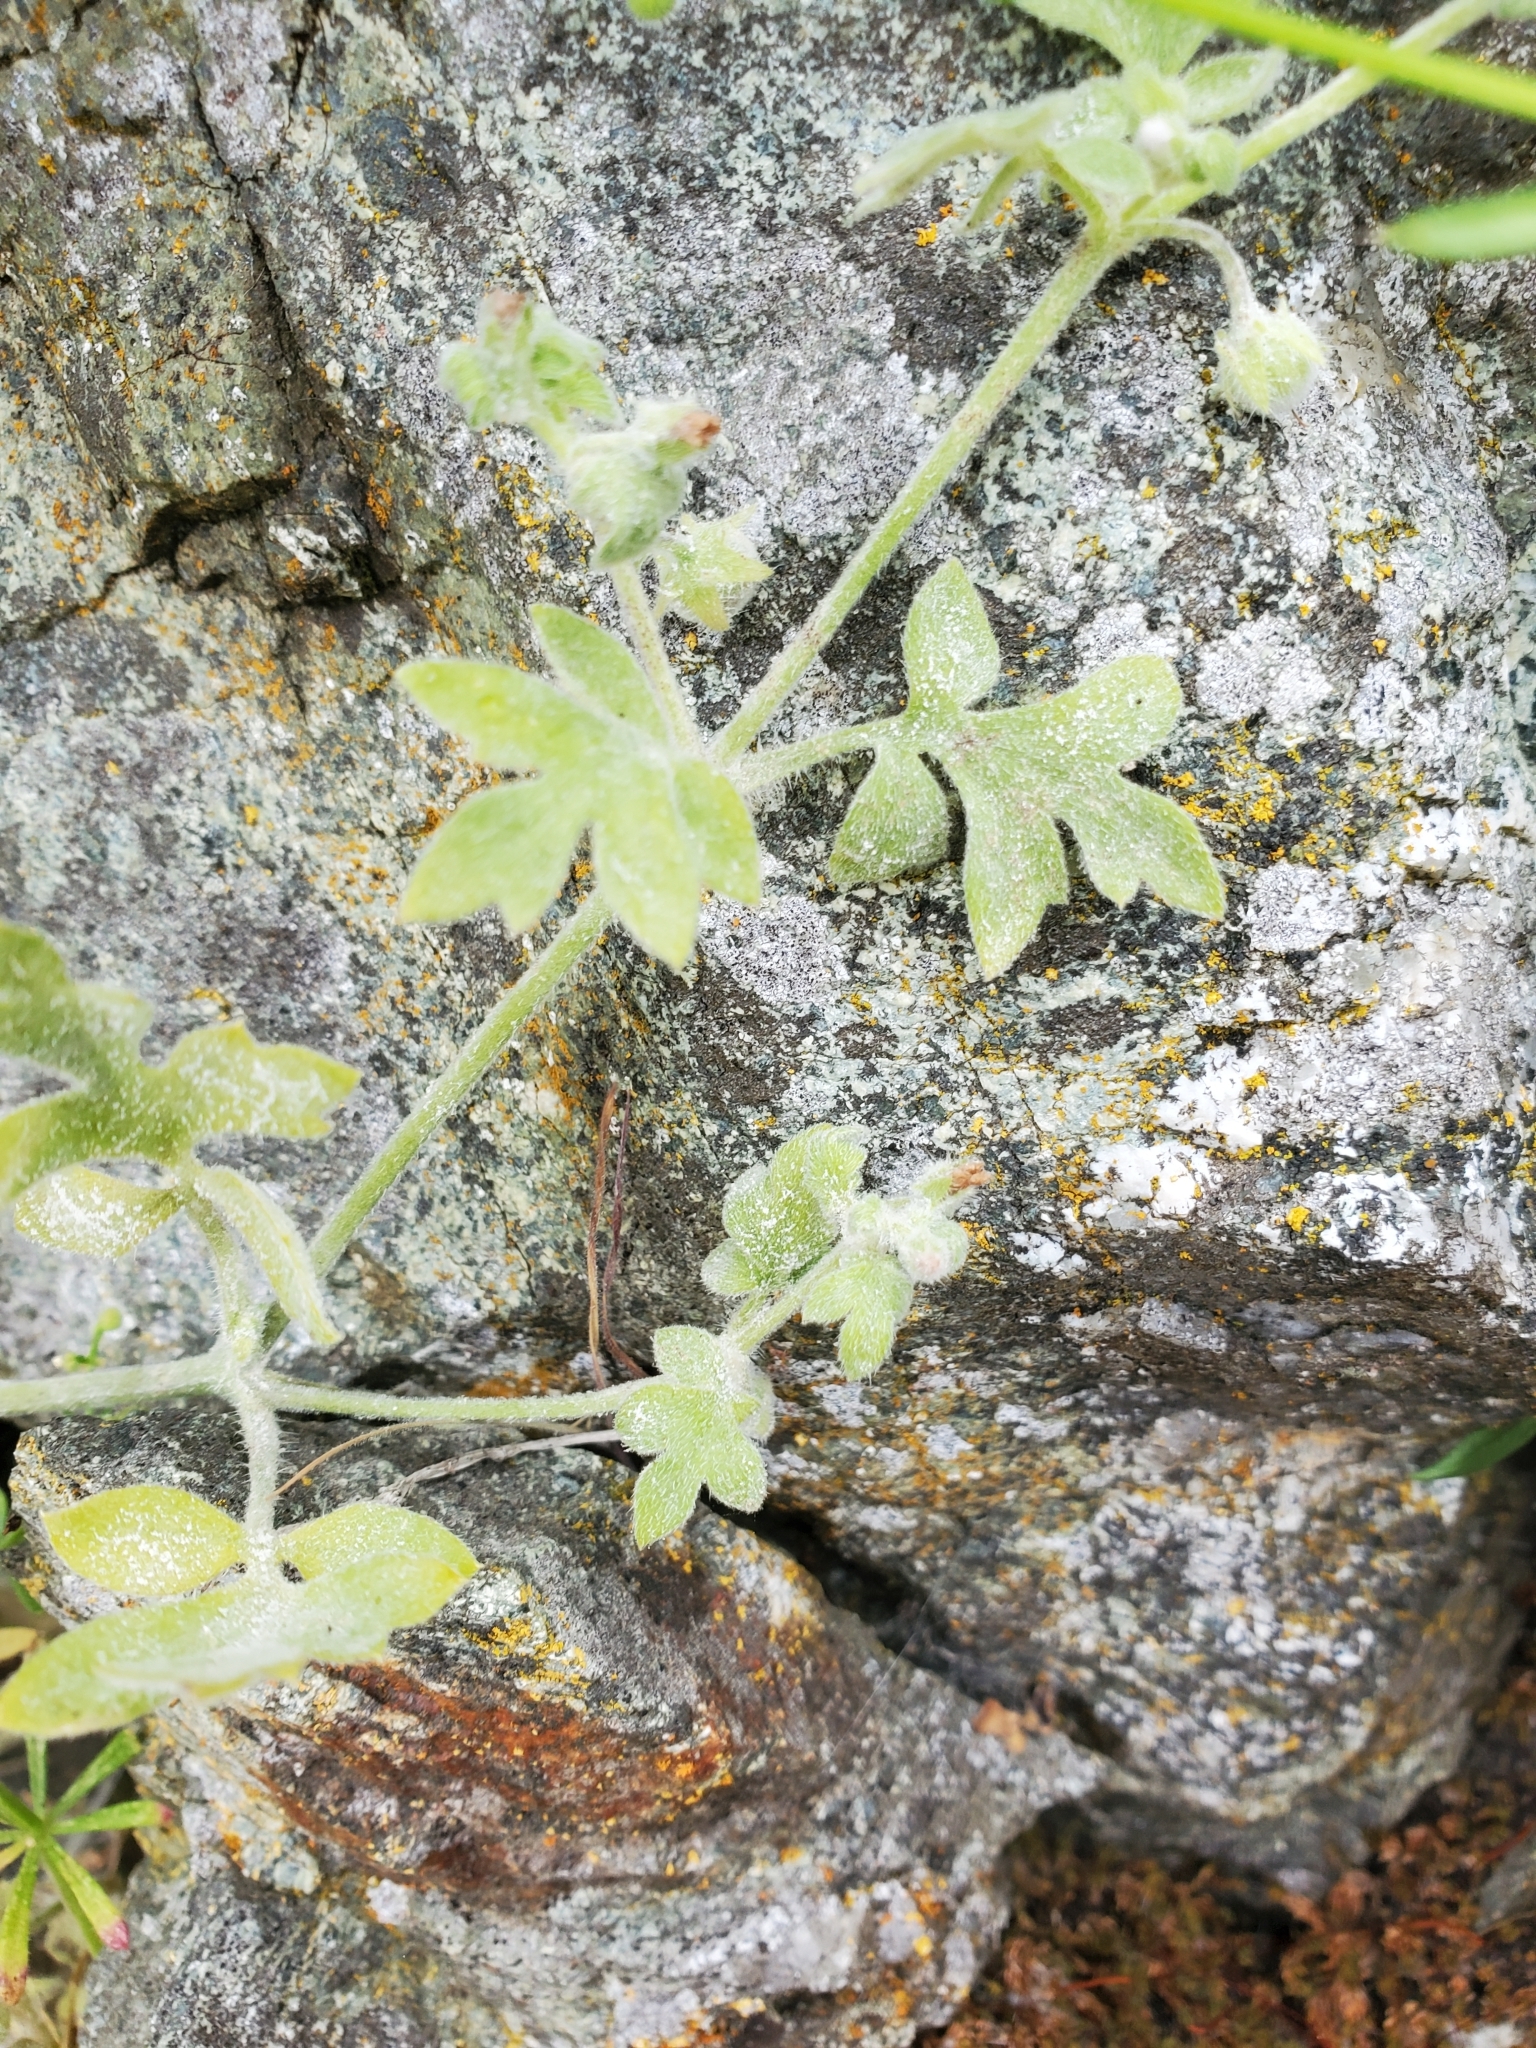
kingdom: Plantae
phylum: Tracheophyta
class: Magnoliopsida
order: Boraginales
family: Hydrophyllaceae
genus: Nemophila
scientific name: Nemophila parviflora
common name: Small-flowered baby-blue-eyes
